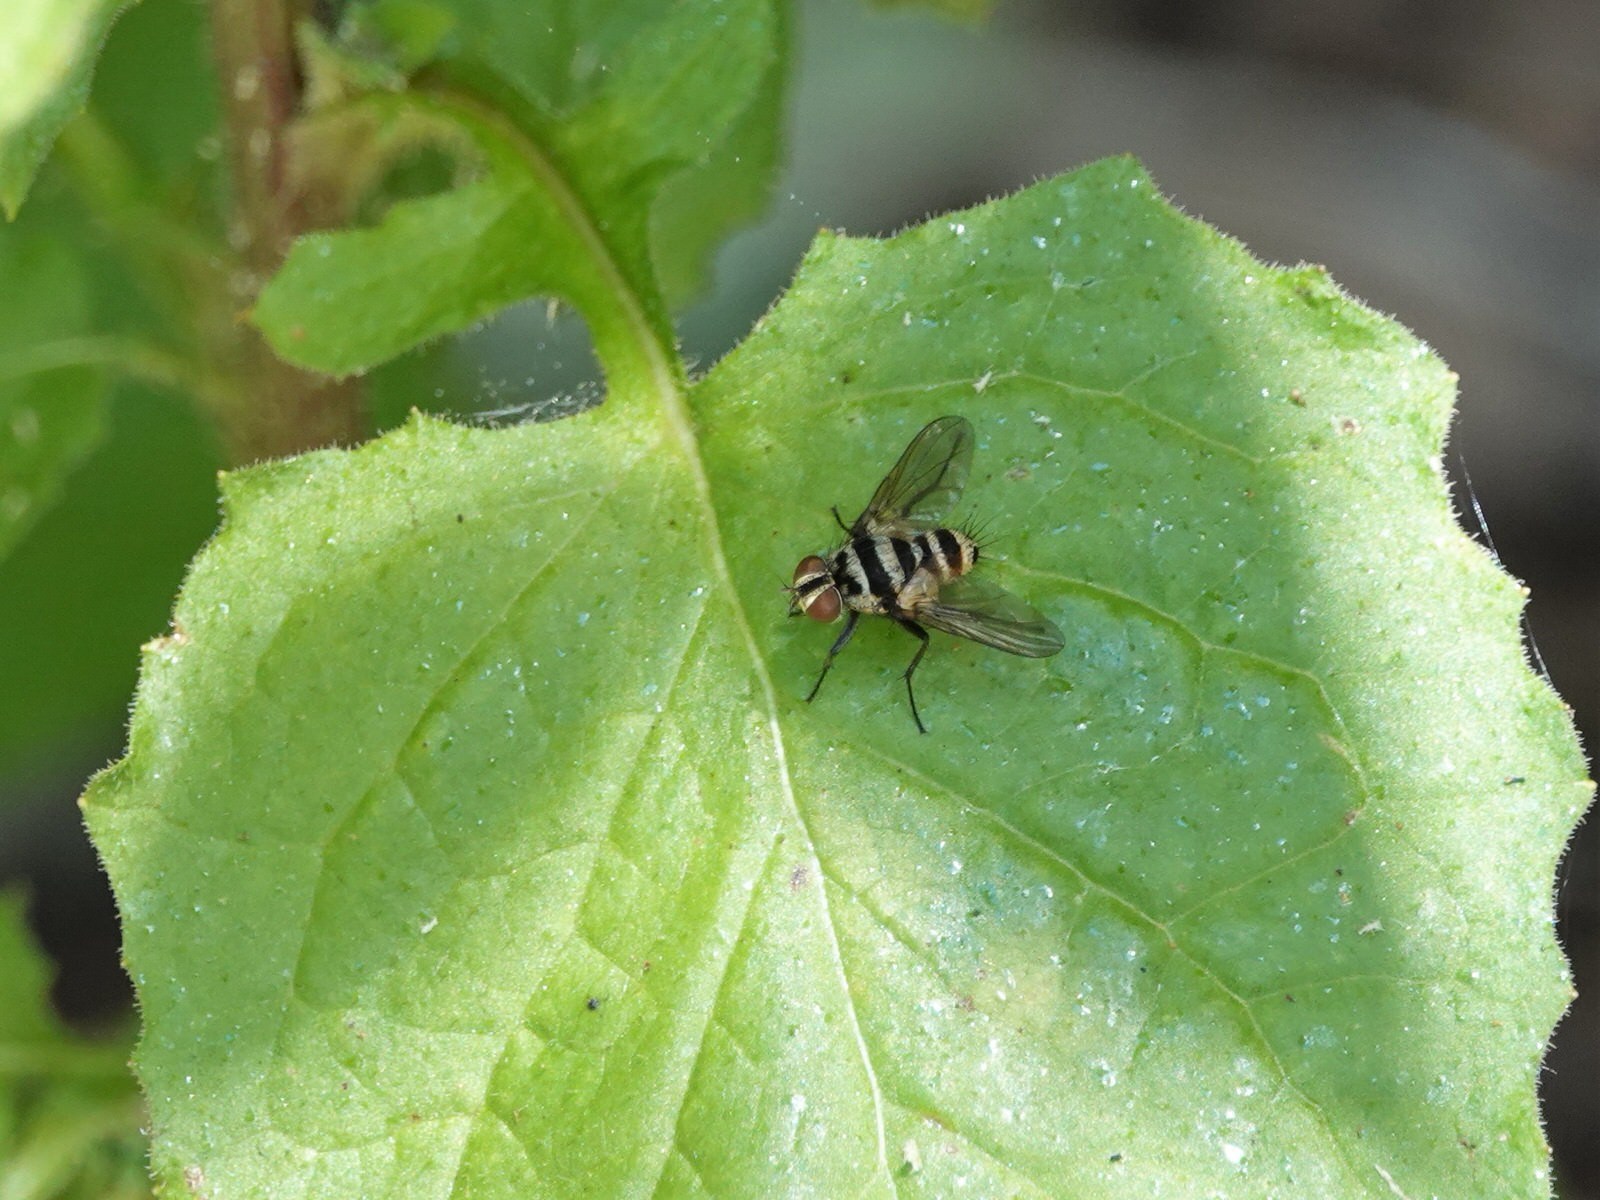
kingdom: Animalia
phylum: Arthropoda
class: Insecta
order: Diptera
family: Tachinidae
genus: Trigonospila
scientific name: Trigonospila brevifacies
